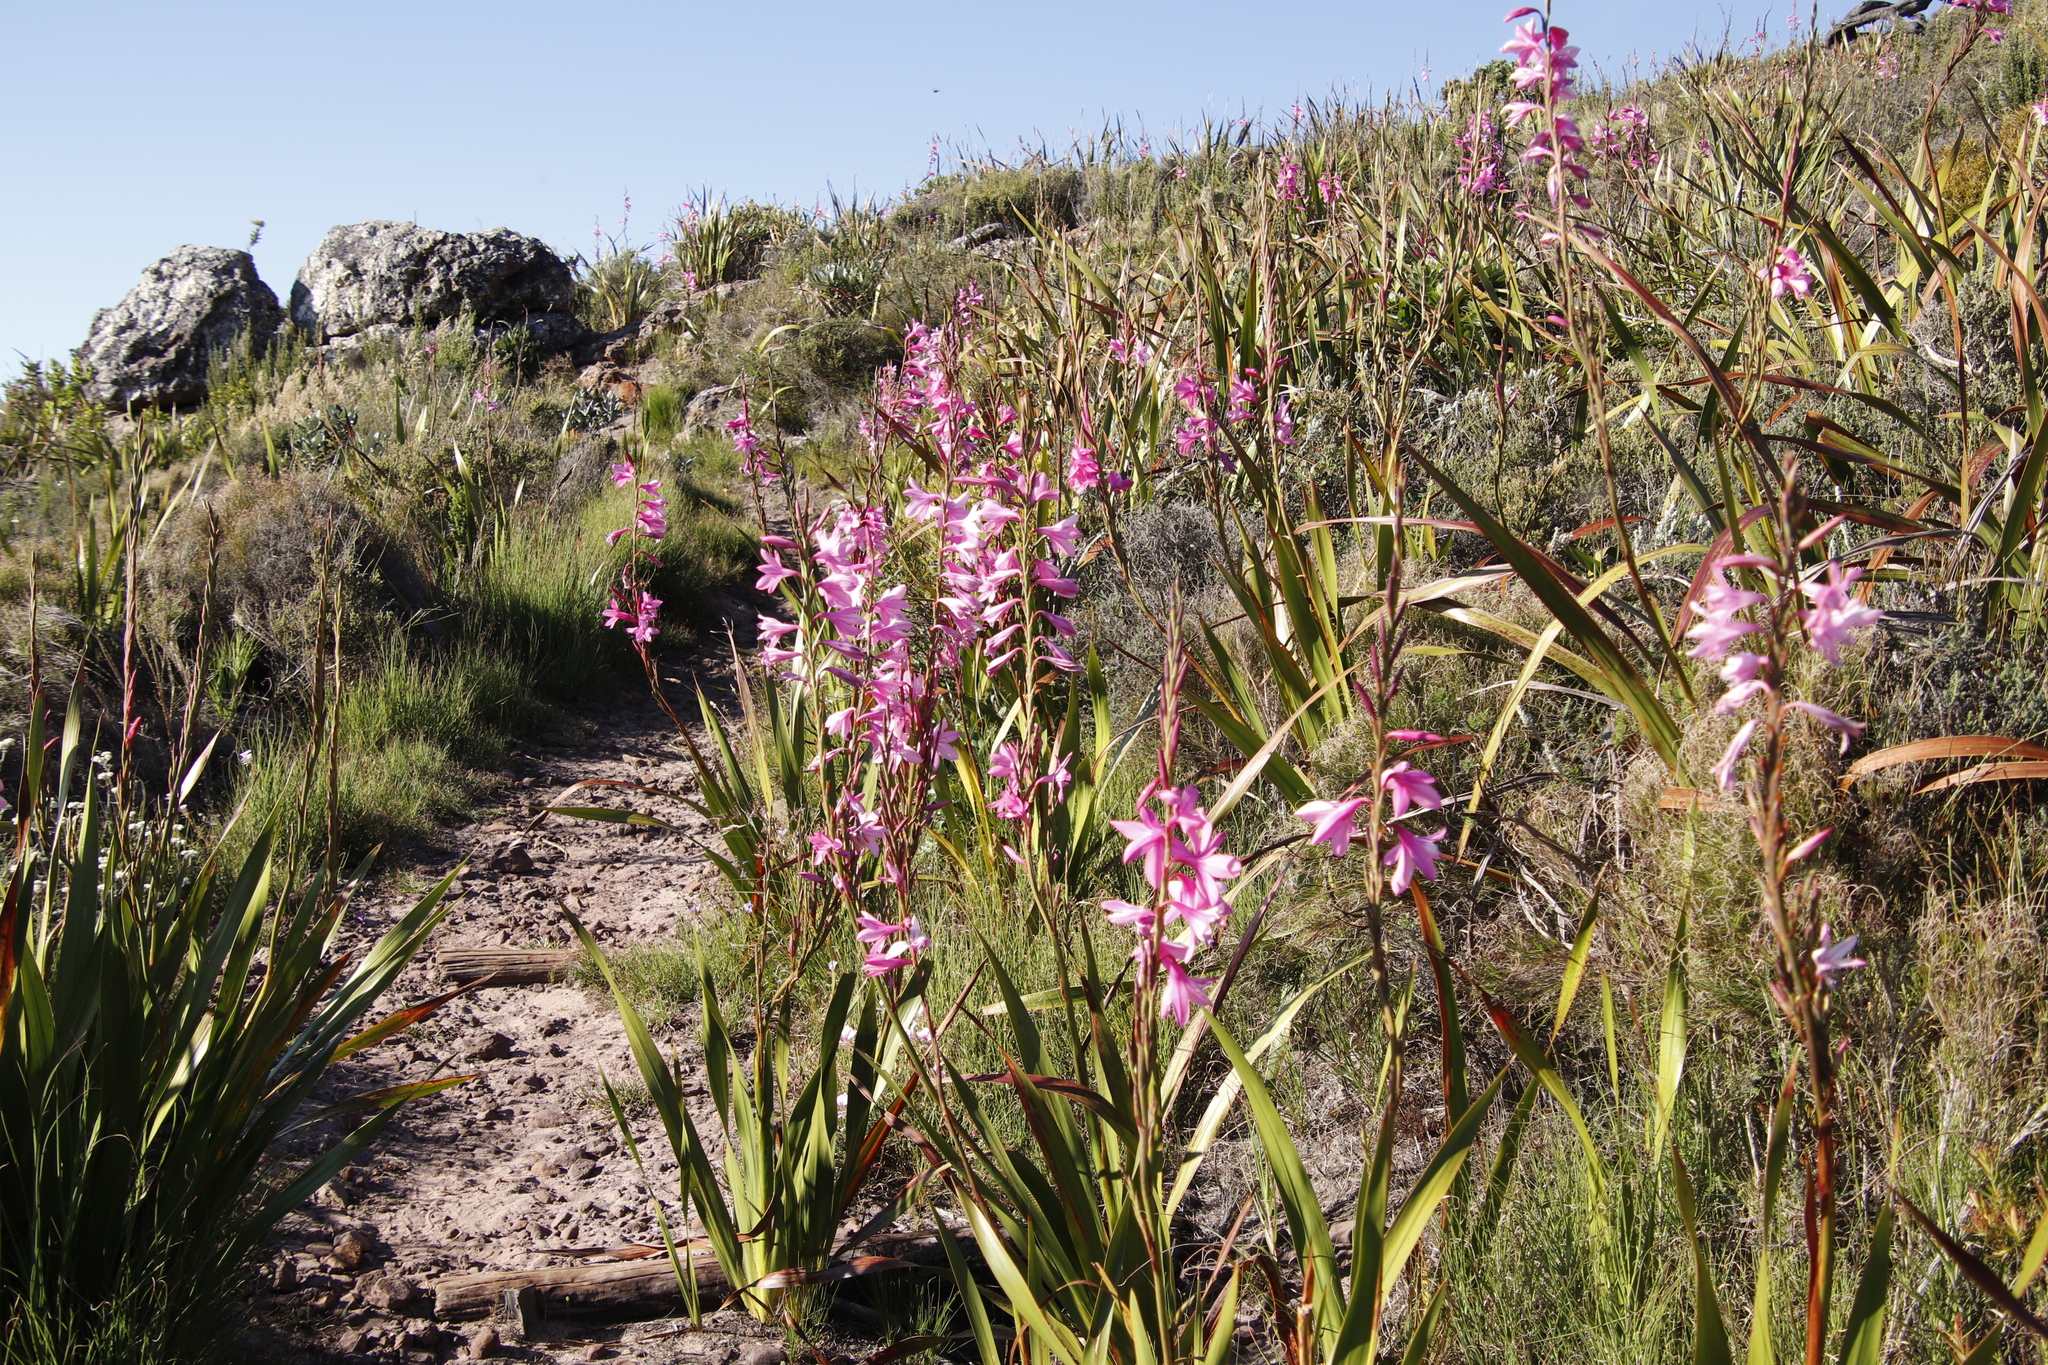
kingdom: Plantae
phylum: Tracheophyta
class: Liliopsida
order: Asparagales
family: Iridaceae
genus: Watsonia
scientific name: Watsonia borbonica
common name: Bugle-lily
